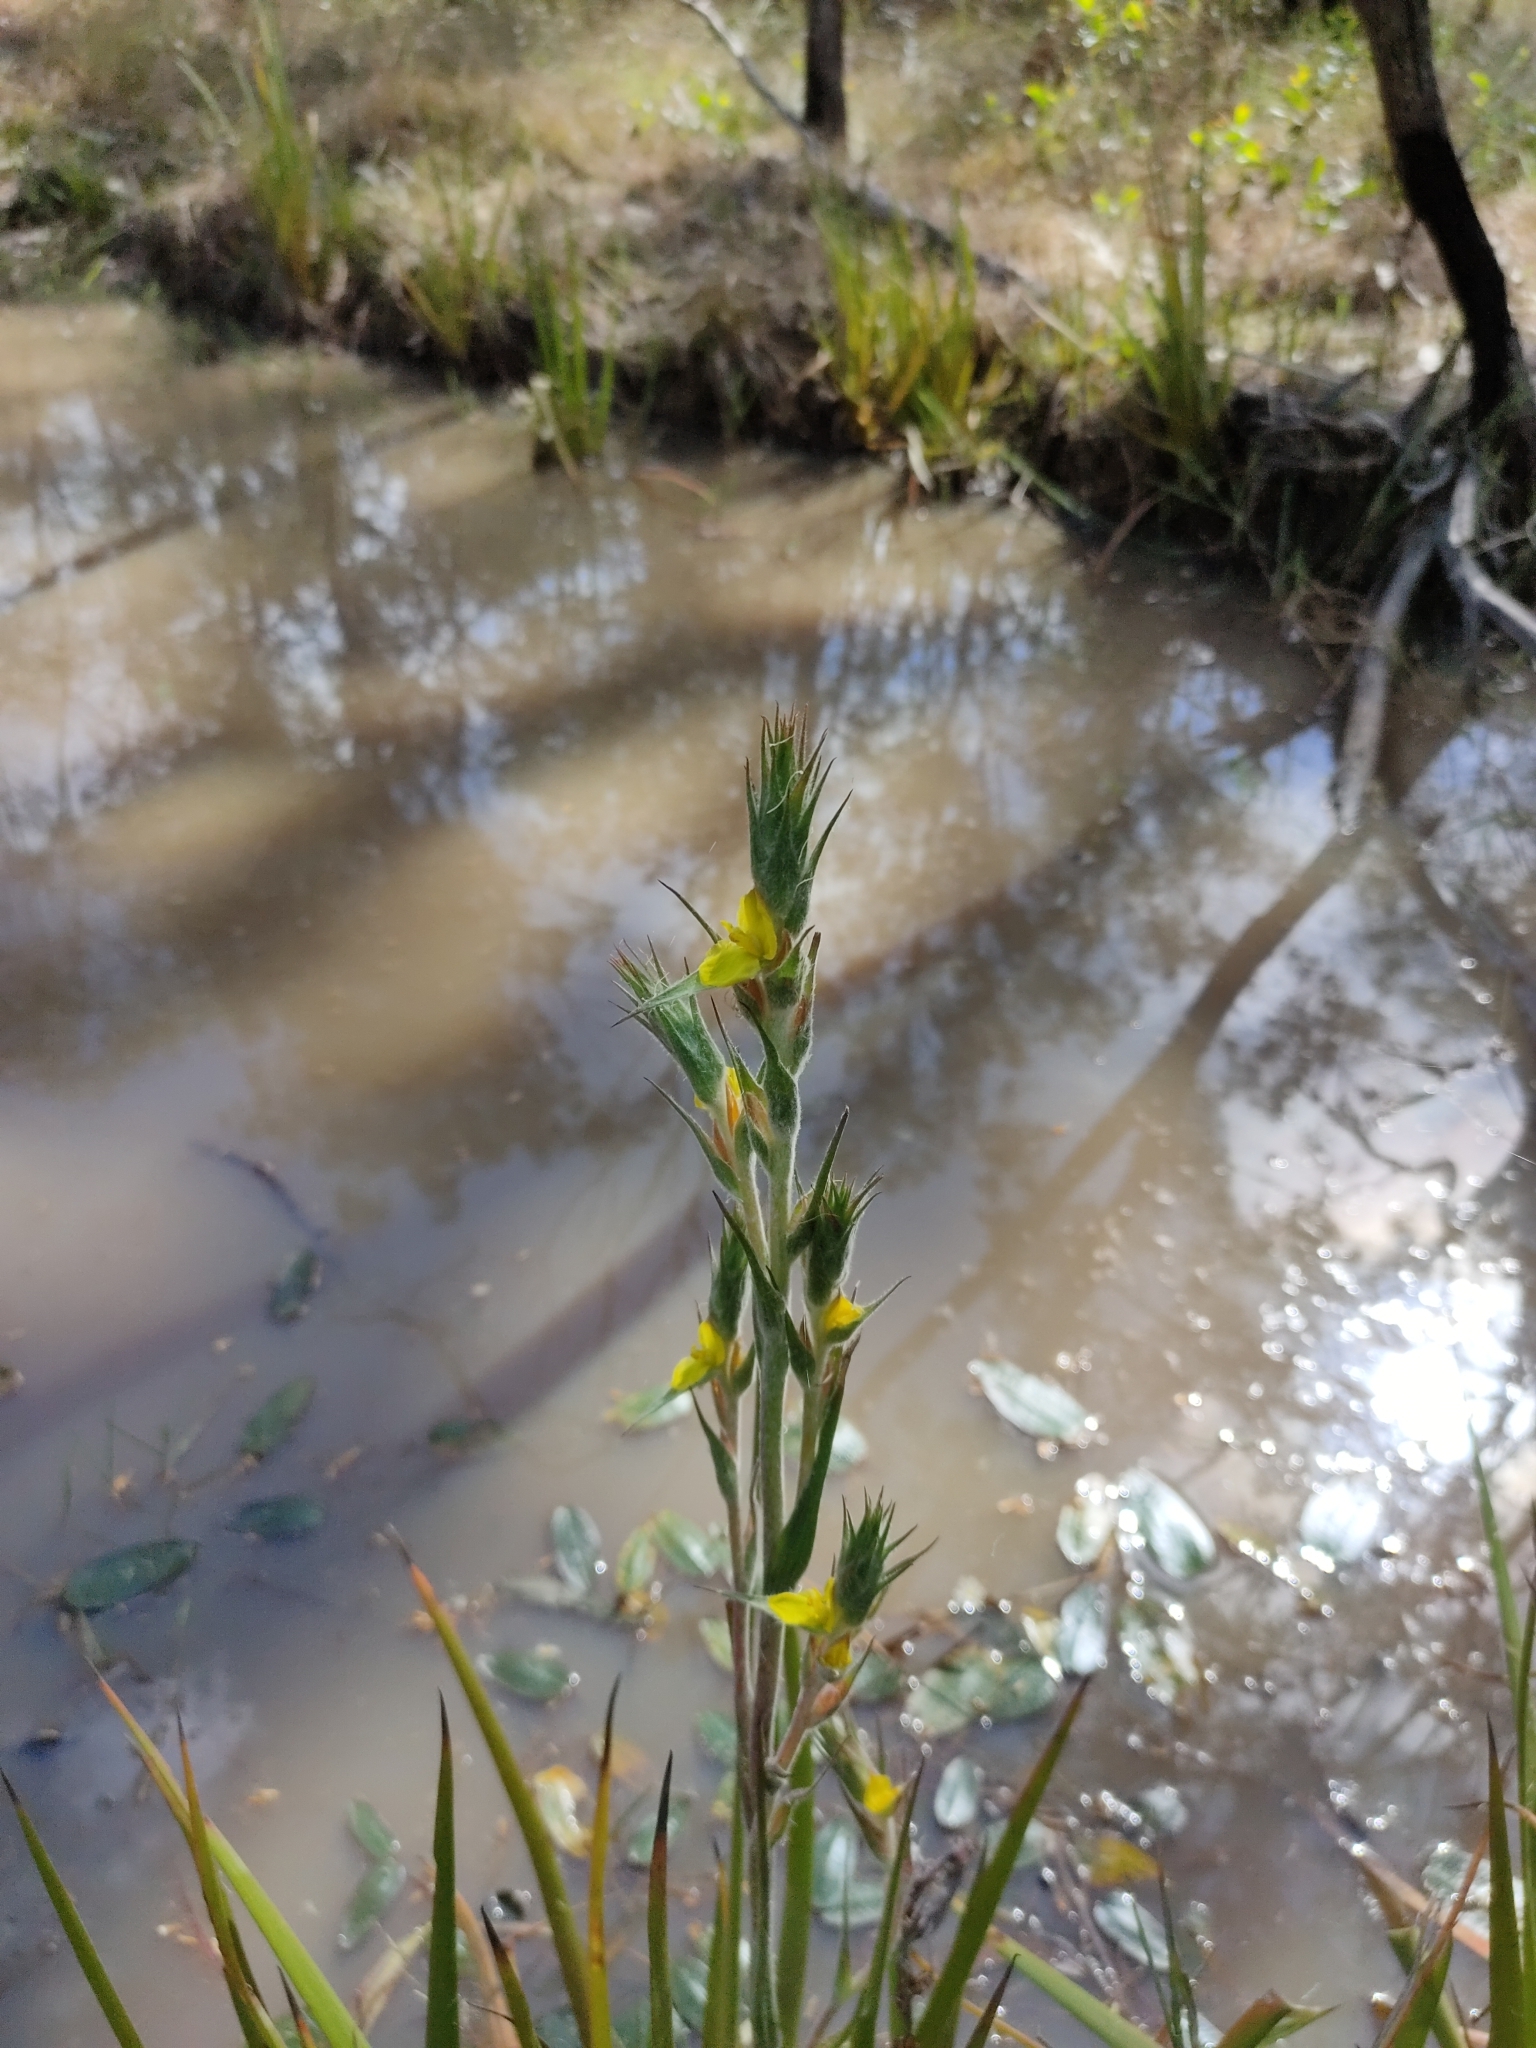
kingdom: Plantae
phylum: Tracheophyta
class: Liliopsida
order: Commelinales
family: Philydraceae
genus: Philydrum
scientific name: Philydrum lanuginosum
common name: Woolly frog's mouth
